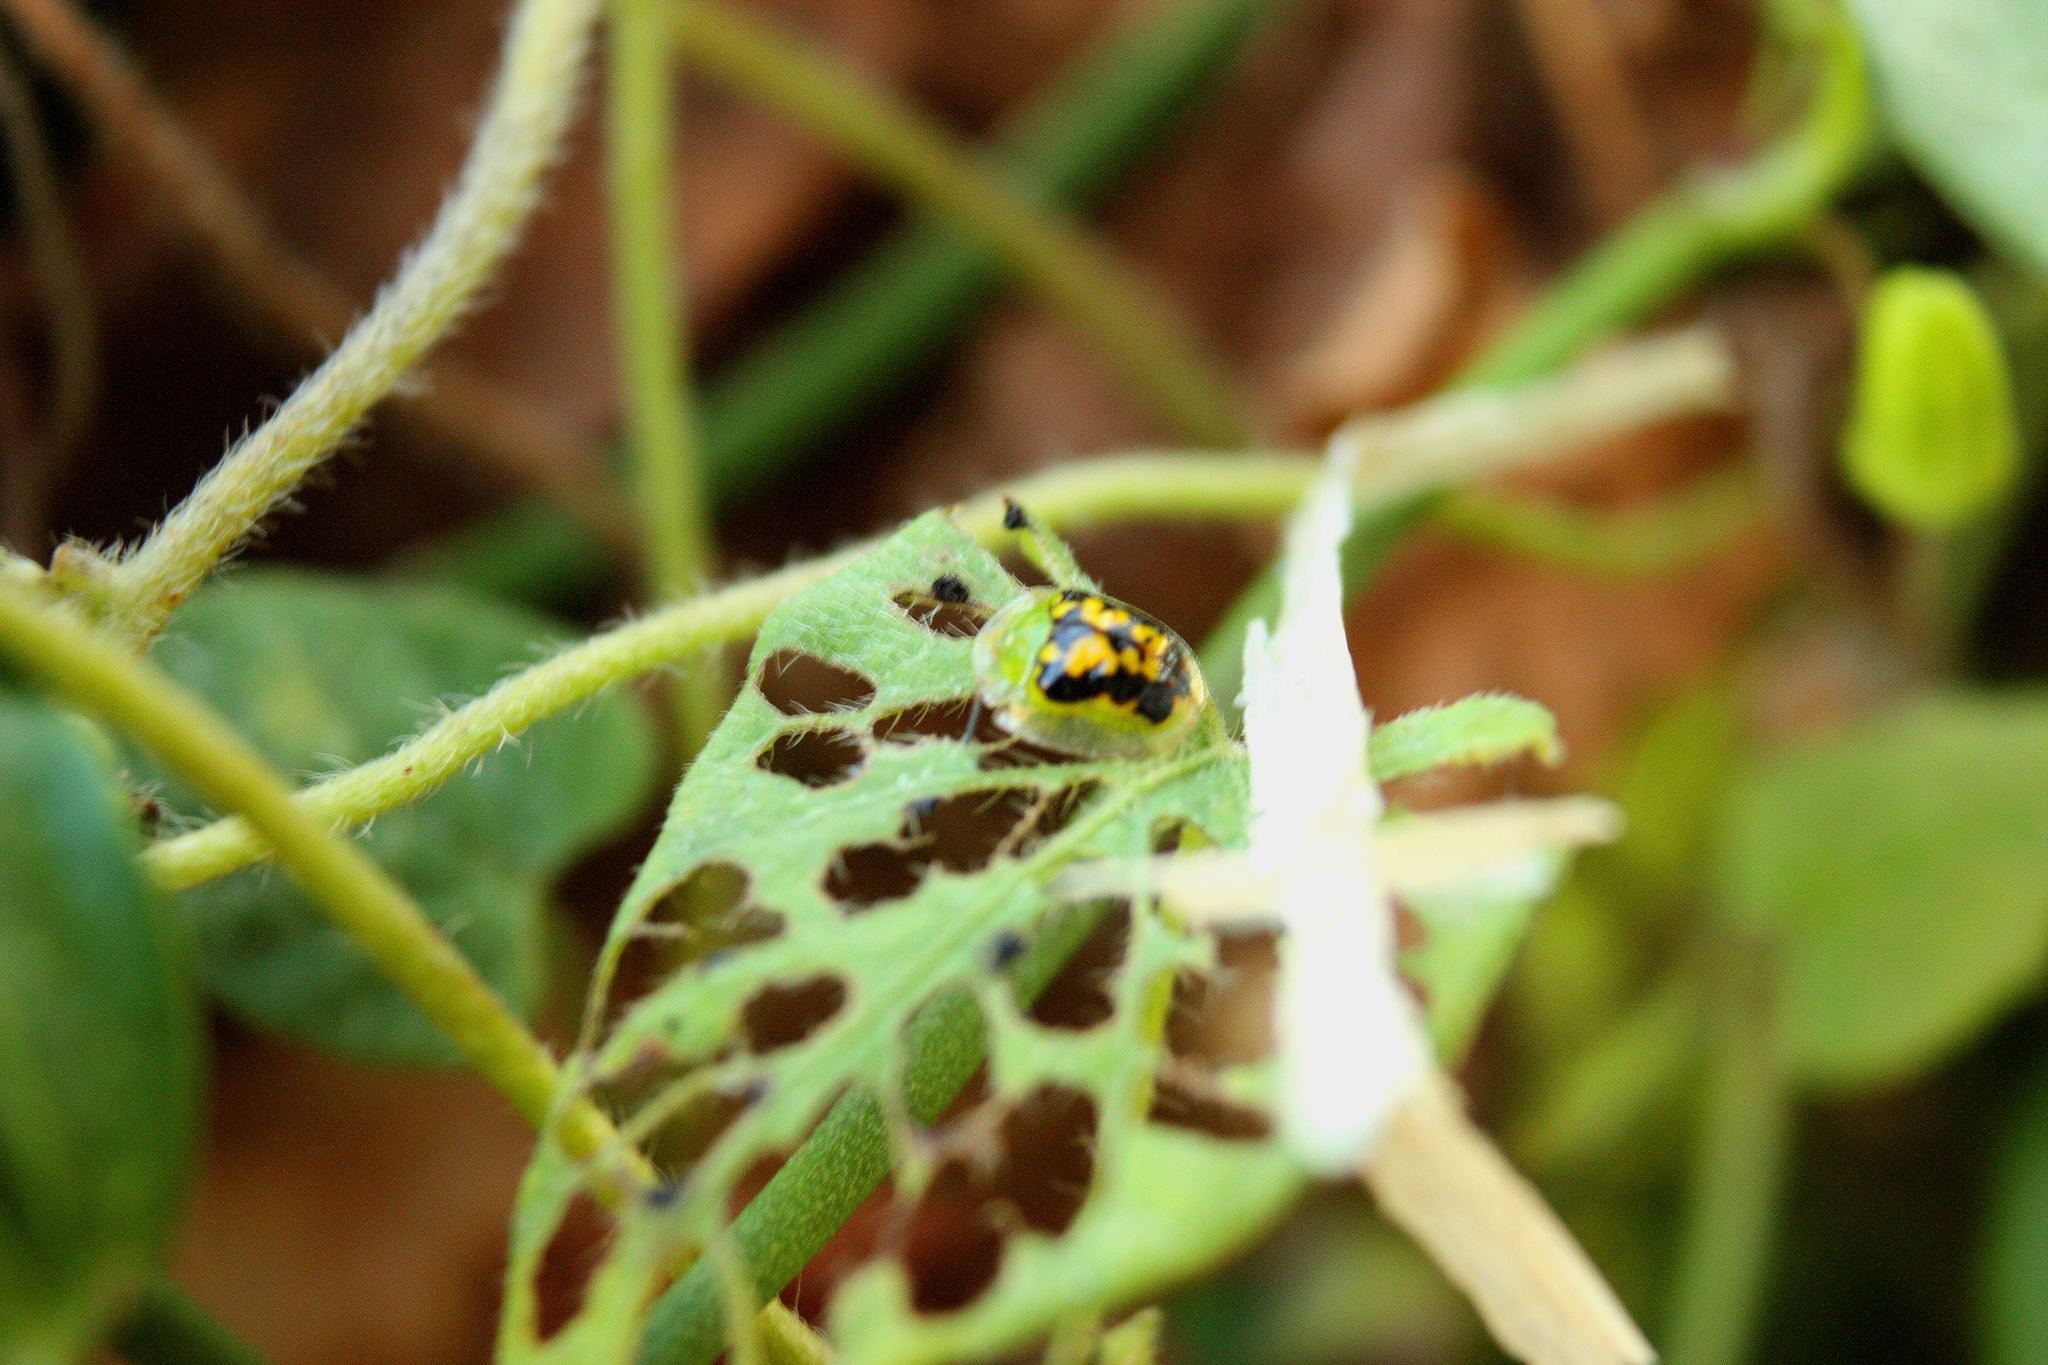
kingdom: Animalia
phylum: Arthropoda
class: Insecta
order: Coleoptera
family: Chrysomelidae
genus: Cassida
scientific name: Cassida diomma
